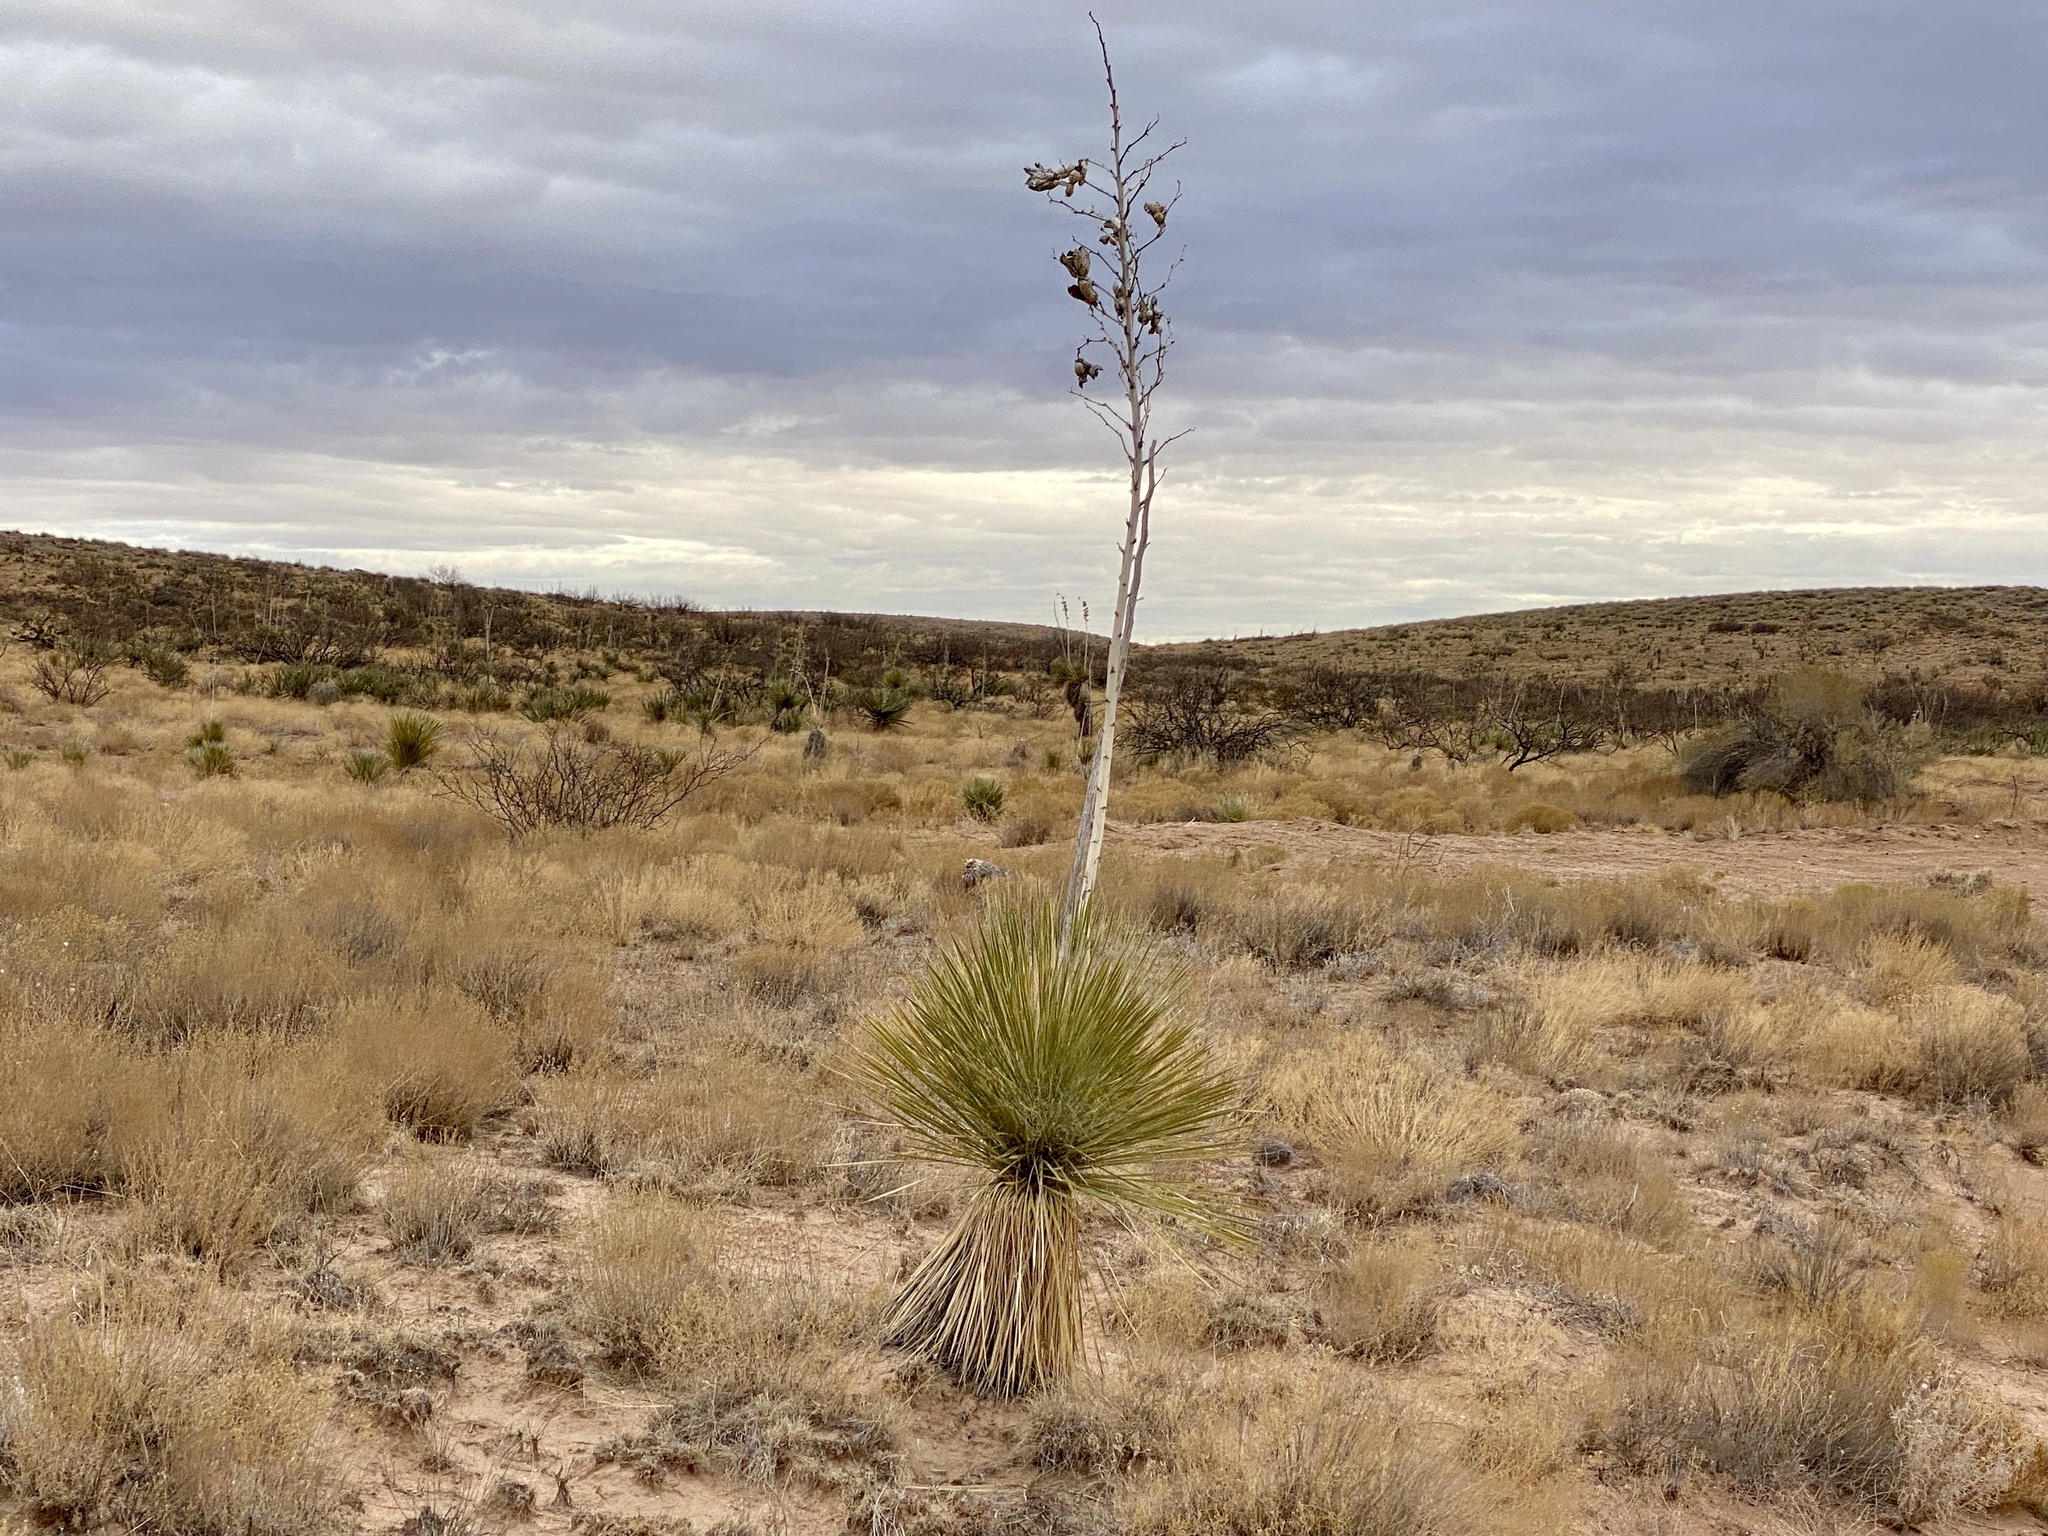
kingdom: Plantae
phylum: Tracheophyta
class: Liliopsida
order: Asparagales
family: Asparagaceae
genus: Yucca
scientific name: Yucca elata
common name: Palmella
